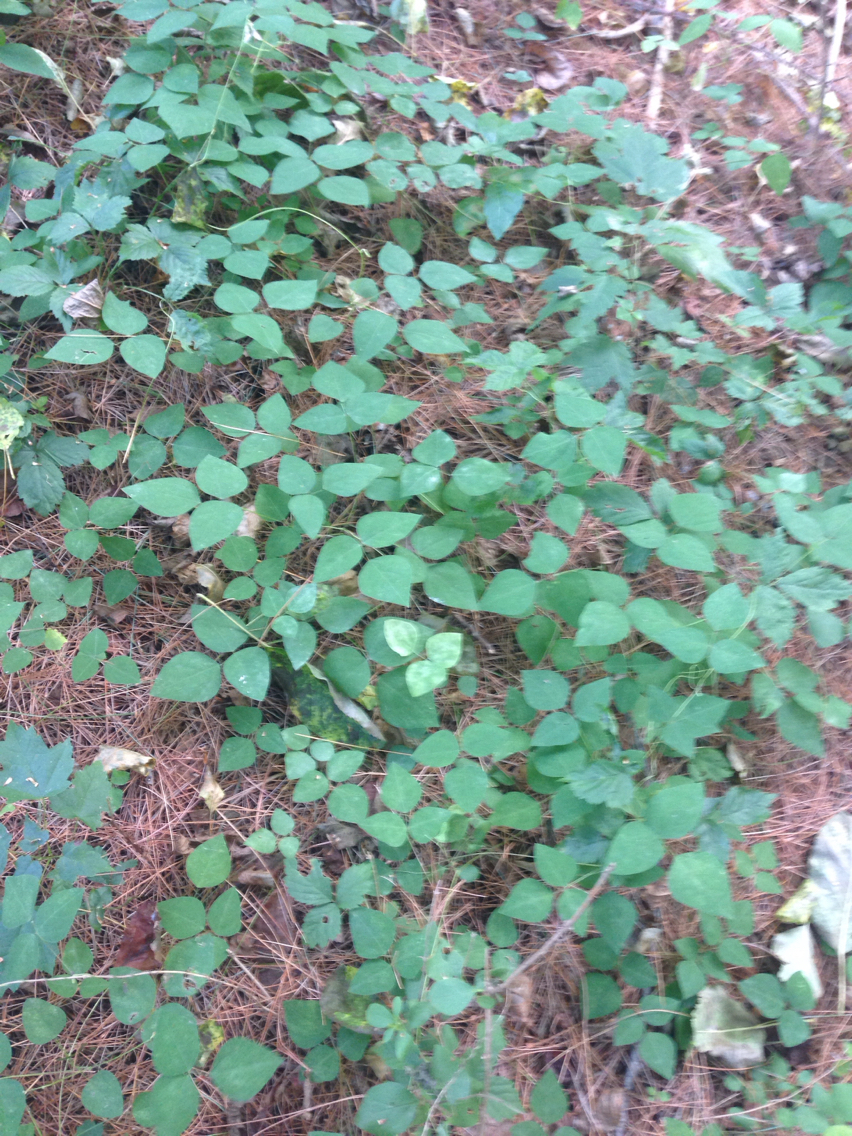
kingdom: Plantae
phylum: Tracheophyta
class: Magnoliopsida
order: Fabales
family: Fabaceae
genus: Amphicarpaea
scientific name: Amphicarpaea bracteata
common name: American hog peanut
